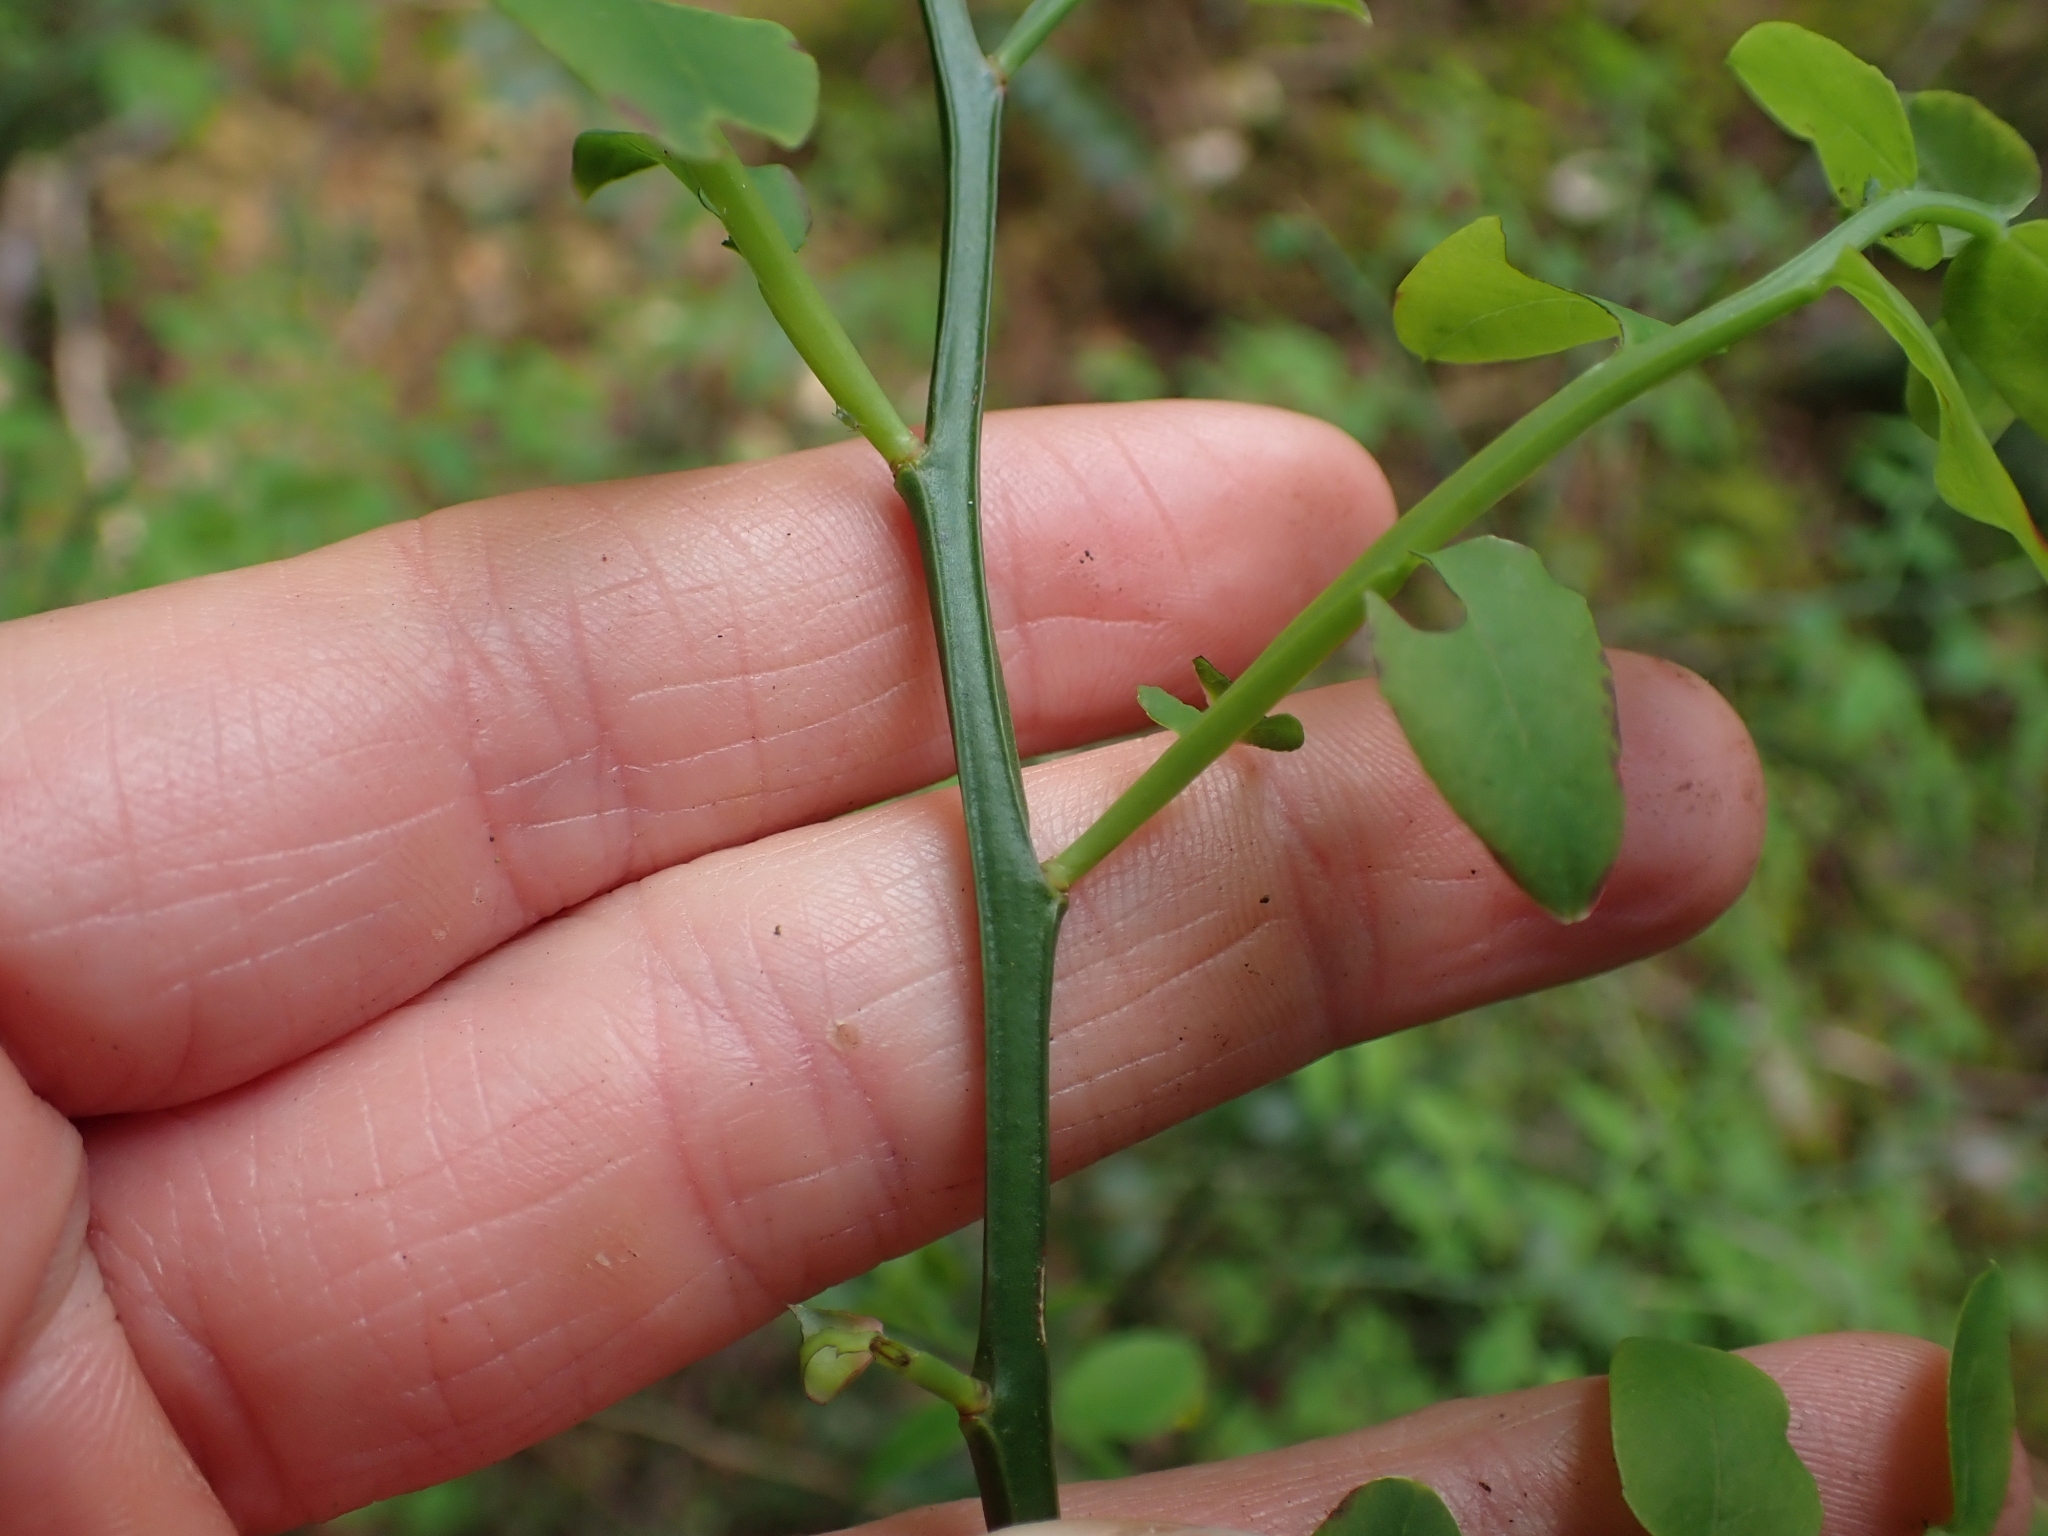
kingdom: Plantae
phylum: Tracheophyta
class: Magnoliopsida
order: Ericales
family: Ericaceae
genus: Vaccinium
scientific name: Vaccinium parvifolium
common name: Red-huckleberry
